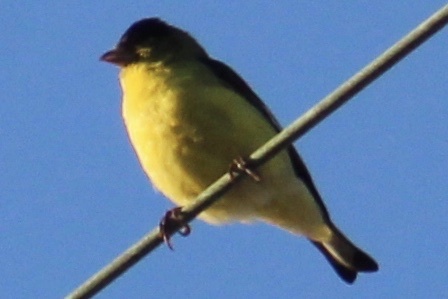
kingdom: Animalia
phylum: Chordata
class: Aves
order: Passeriformes
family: Fringillidae
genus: Spinus
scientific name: Spinus psaltria
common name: Lesser goldfinch
